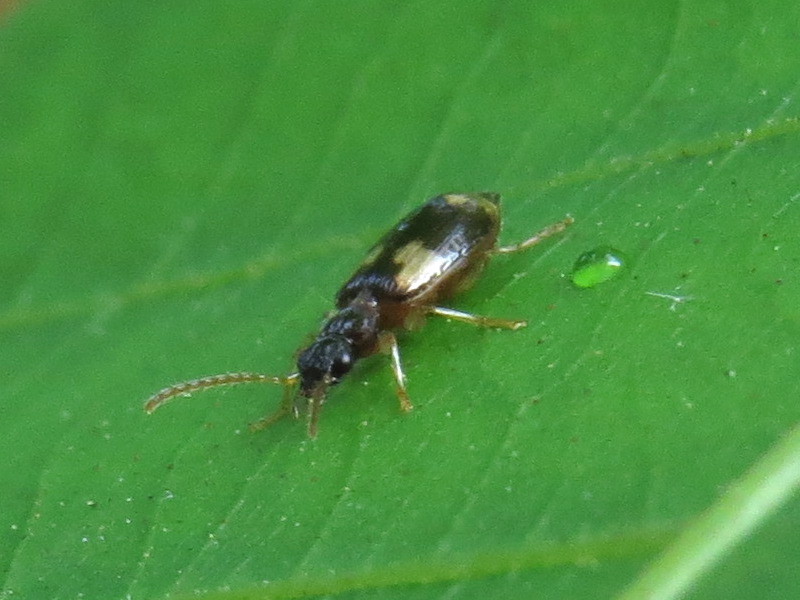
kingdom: Animalia
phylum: Arthropoda
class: Insecta
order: Coleoptera
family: Carabidae
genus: Lebia
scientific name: Lebia ornata
